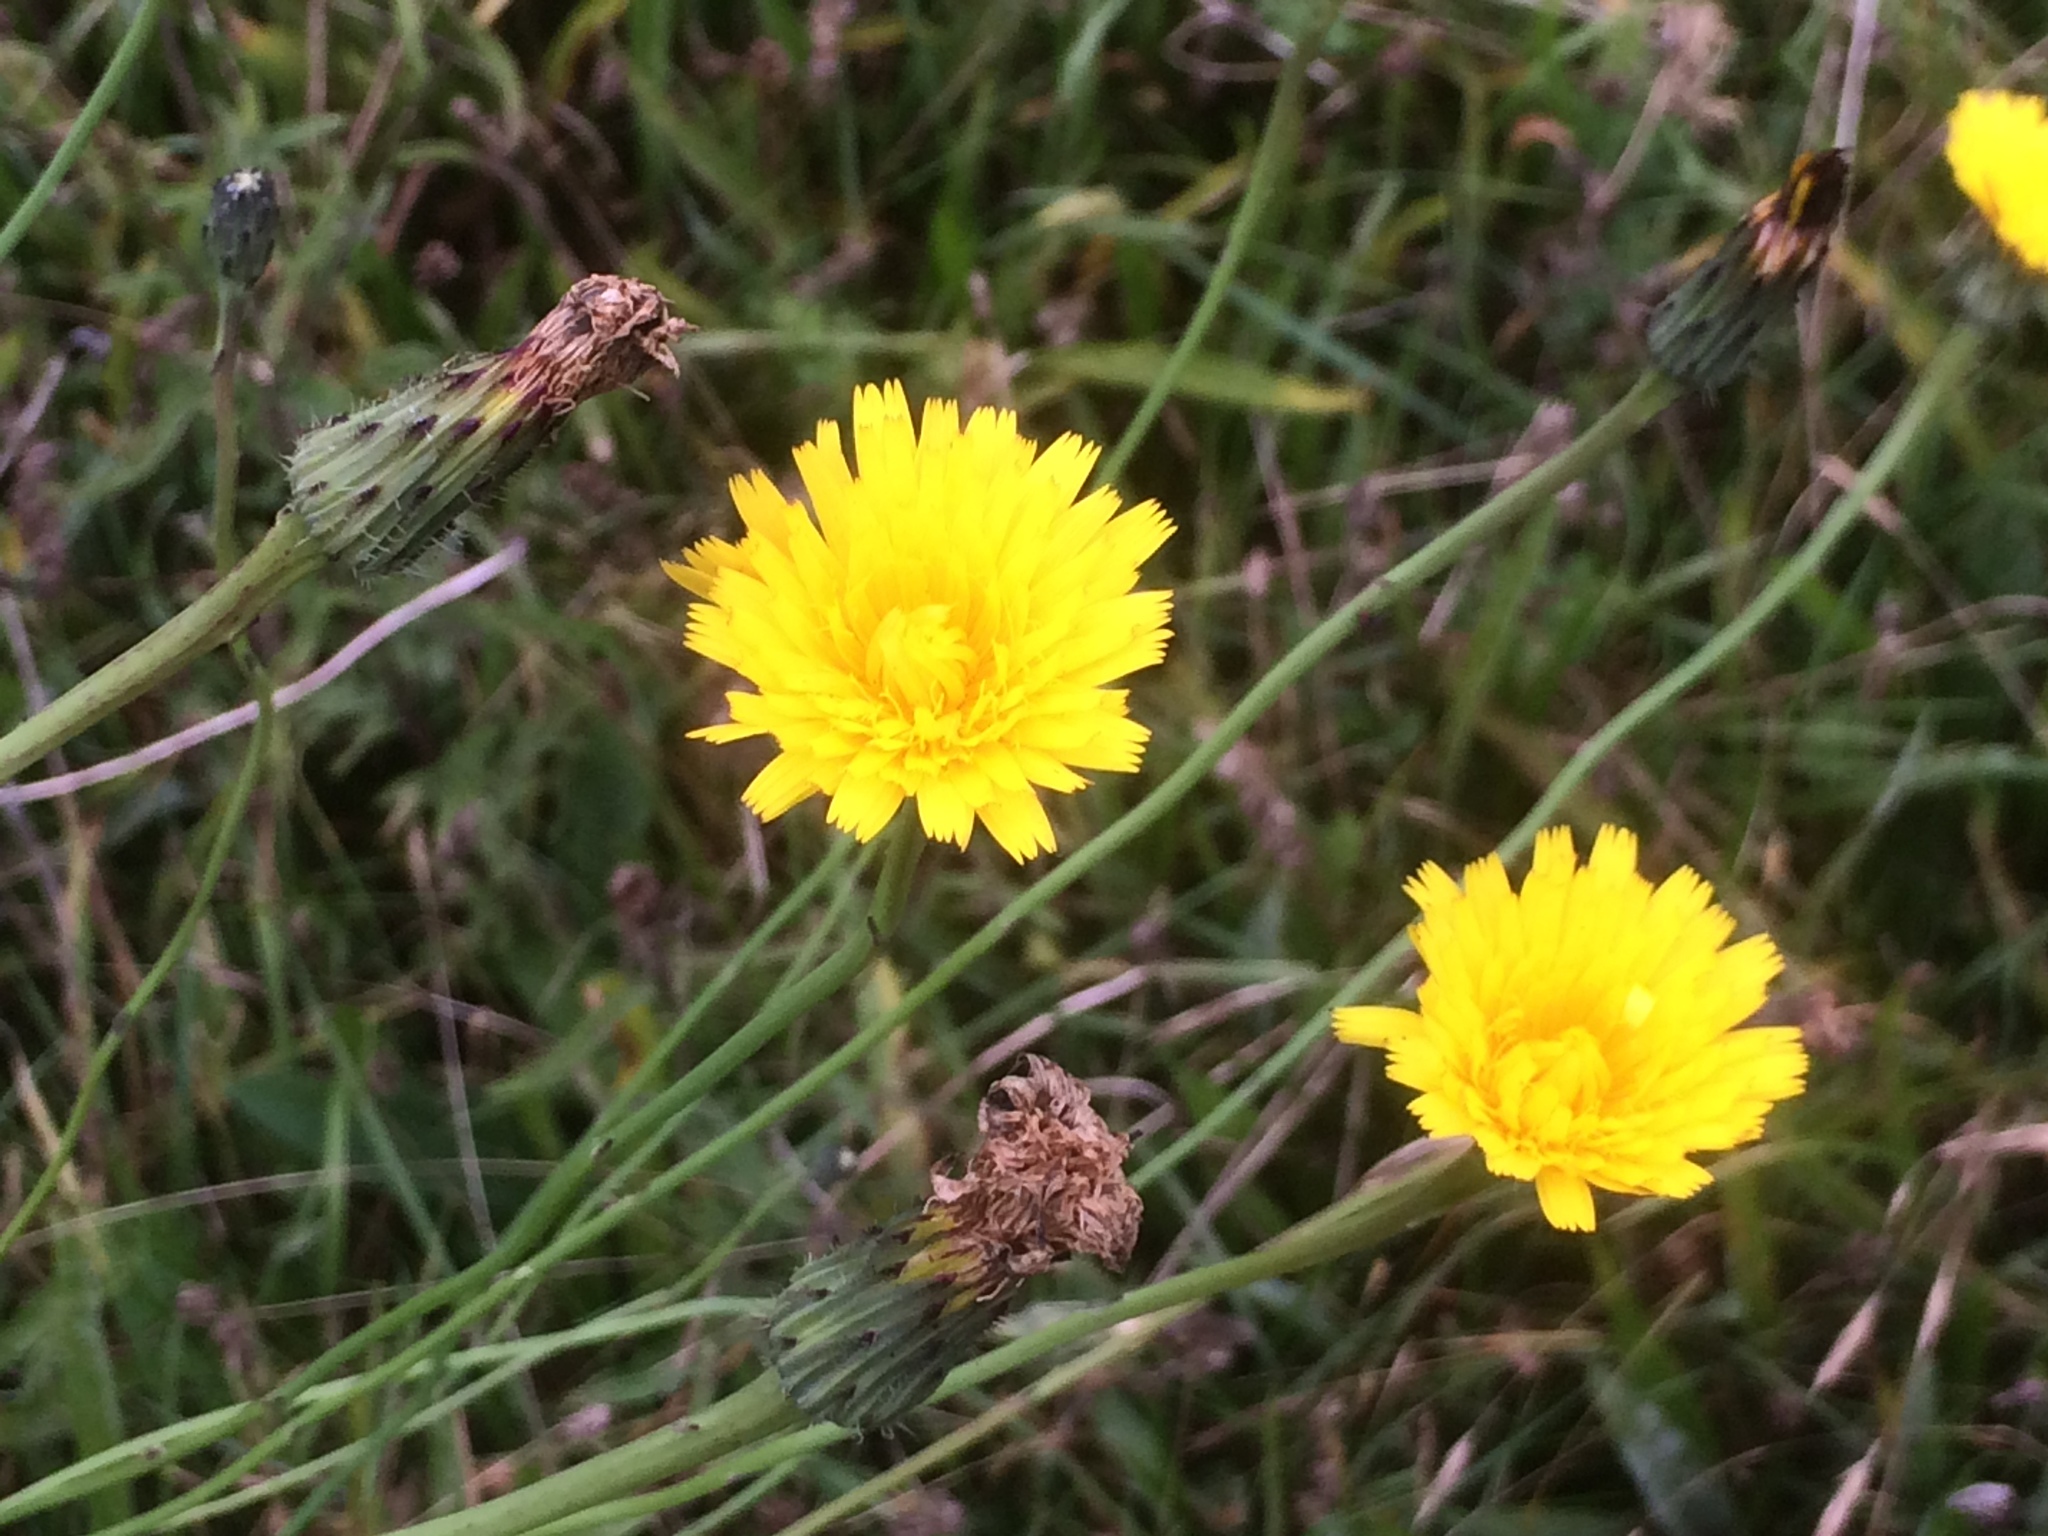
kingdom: Plantae
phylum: Tracheophyta
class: Magnoliopsida
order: Asterales
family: Asteraceae
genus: Hypochaeris
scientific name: Hypochaeris radicata
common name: Flatweed
